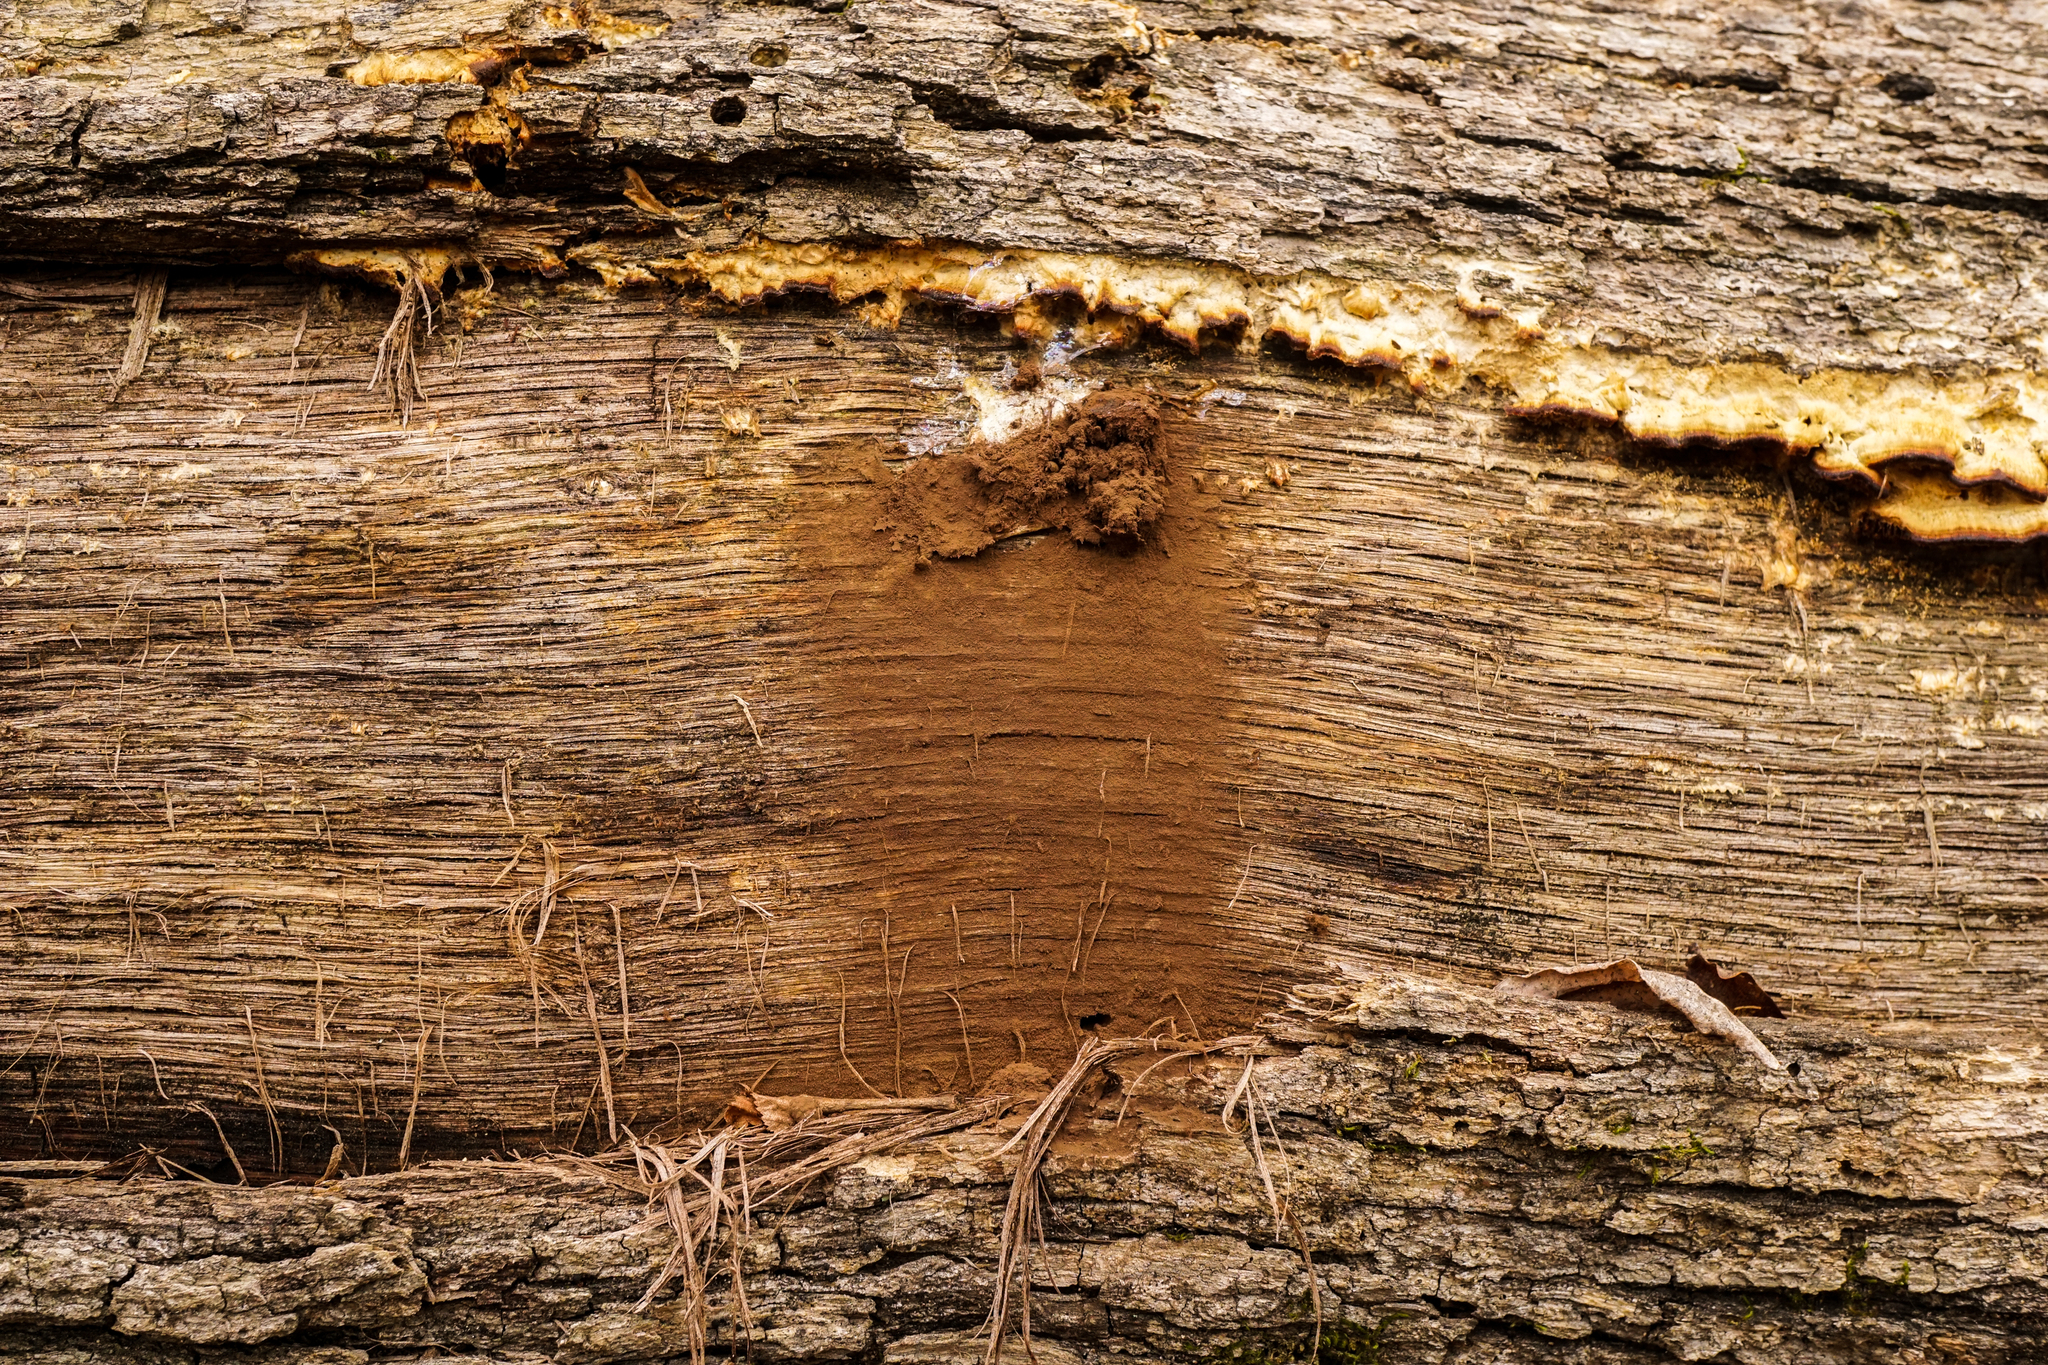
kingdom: Protozoa
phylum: Mycetozoa
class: Myxomycetes
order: Cribrariales
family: Tubiferaceae
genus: Reticularia
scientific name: Reticularia lycoperdon
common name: False puffball
